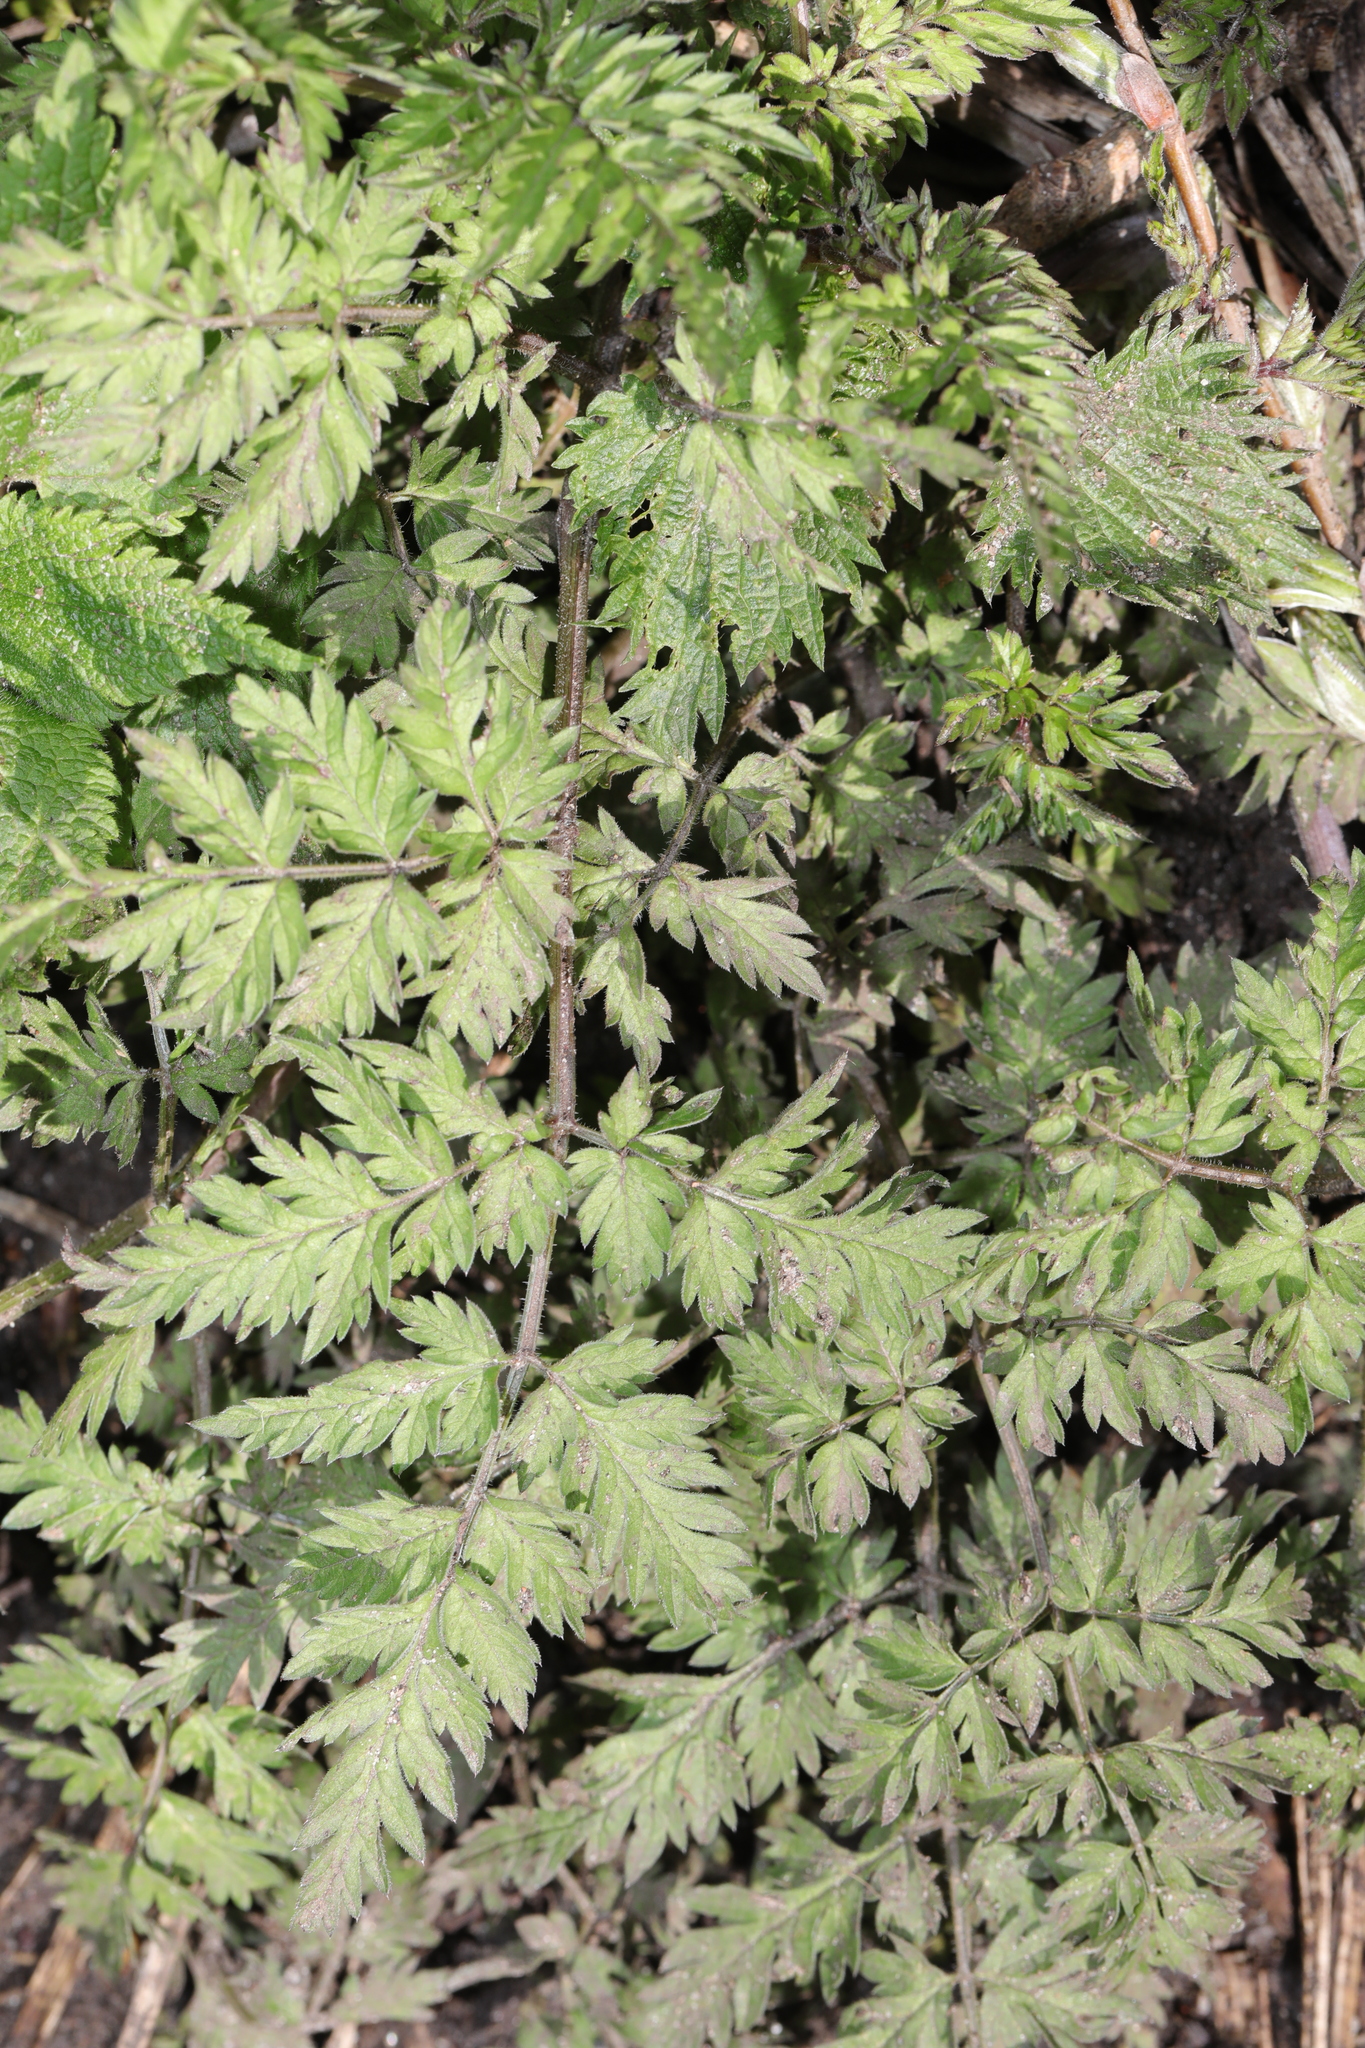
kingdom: Plantae
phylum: Tracheophyta
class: Magnoliopsida
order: Apiales
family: Apiaceae
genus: Anthriscus
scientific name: Anthriscus sylvestris
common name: Cow parsley
